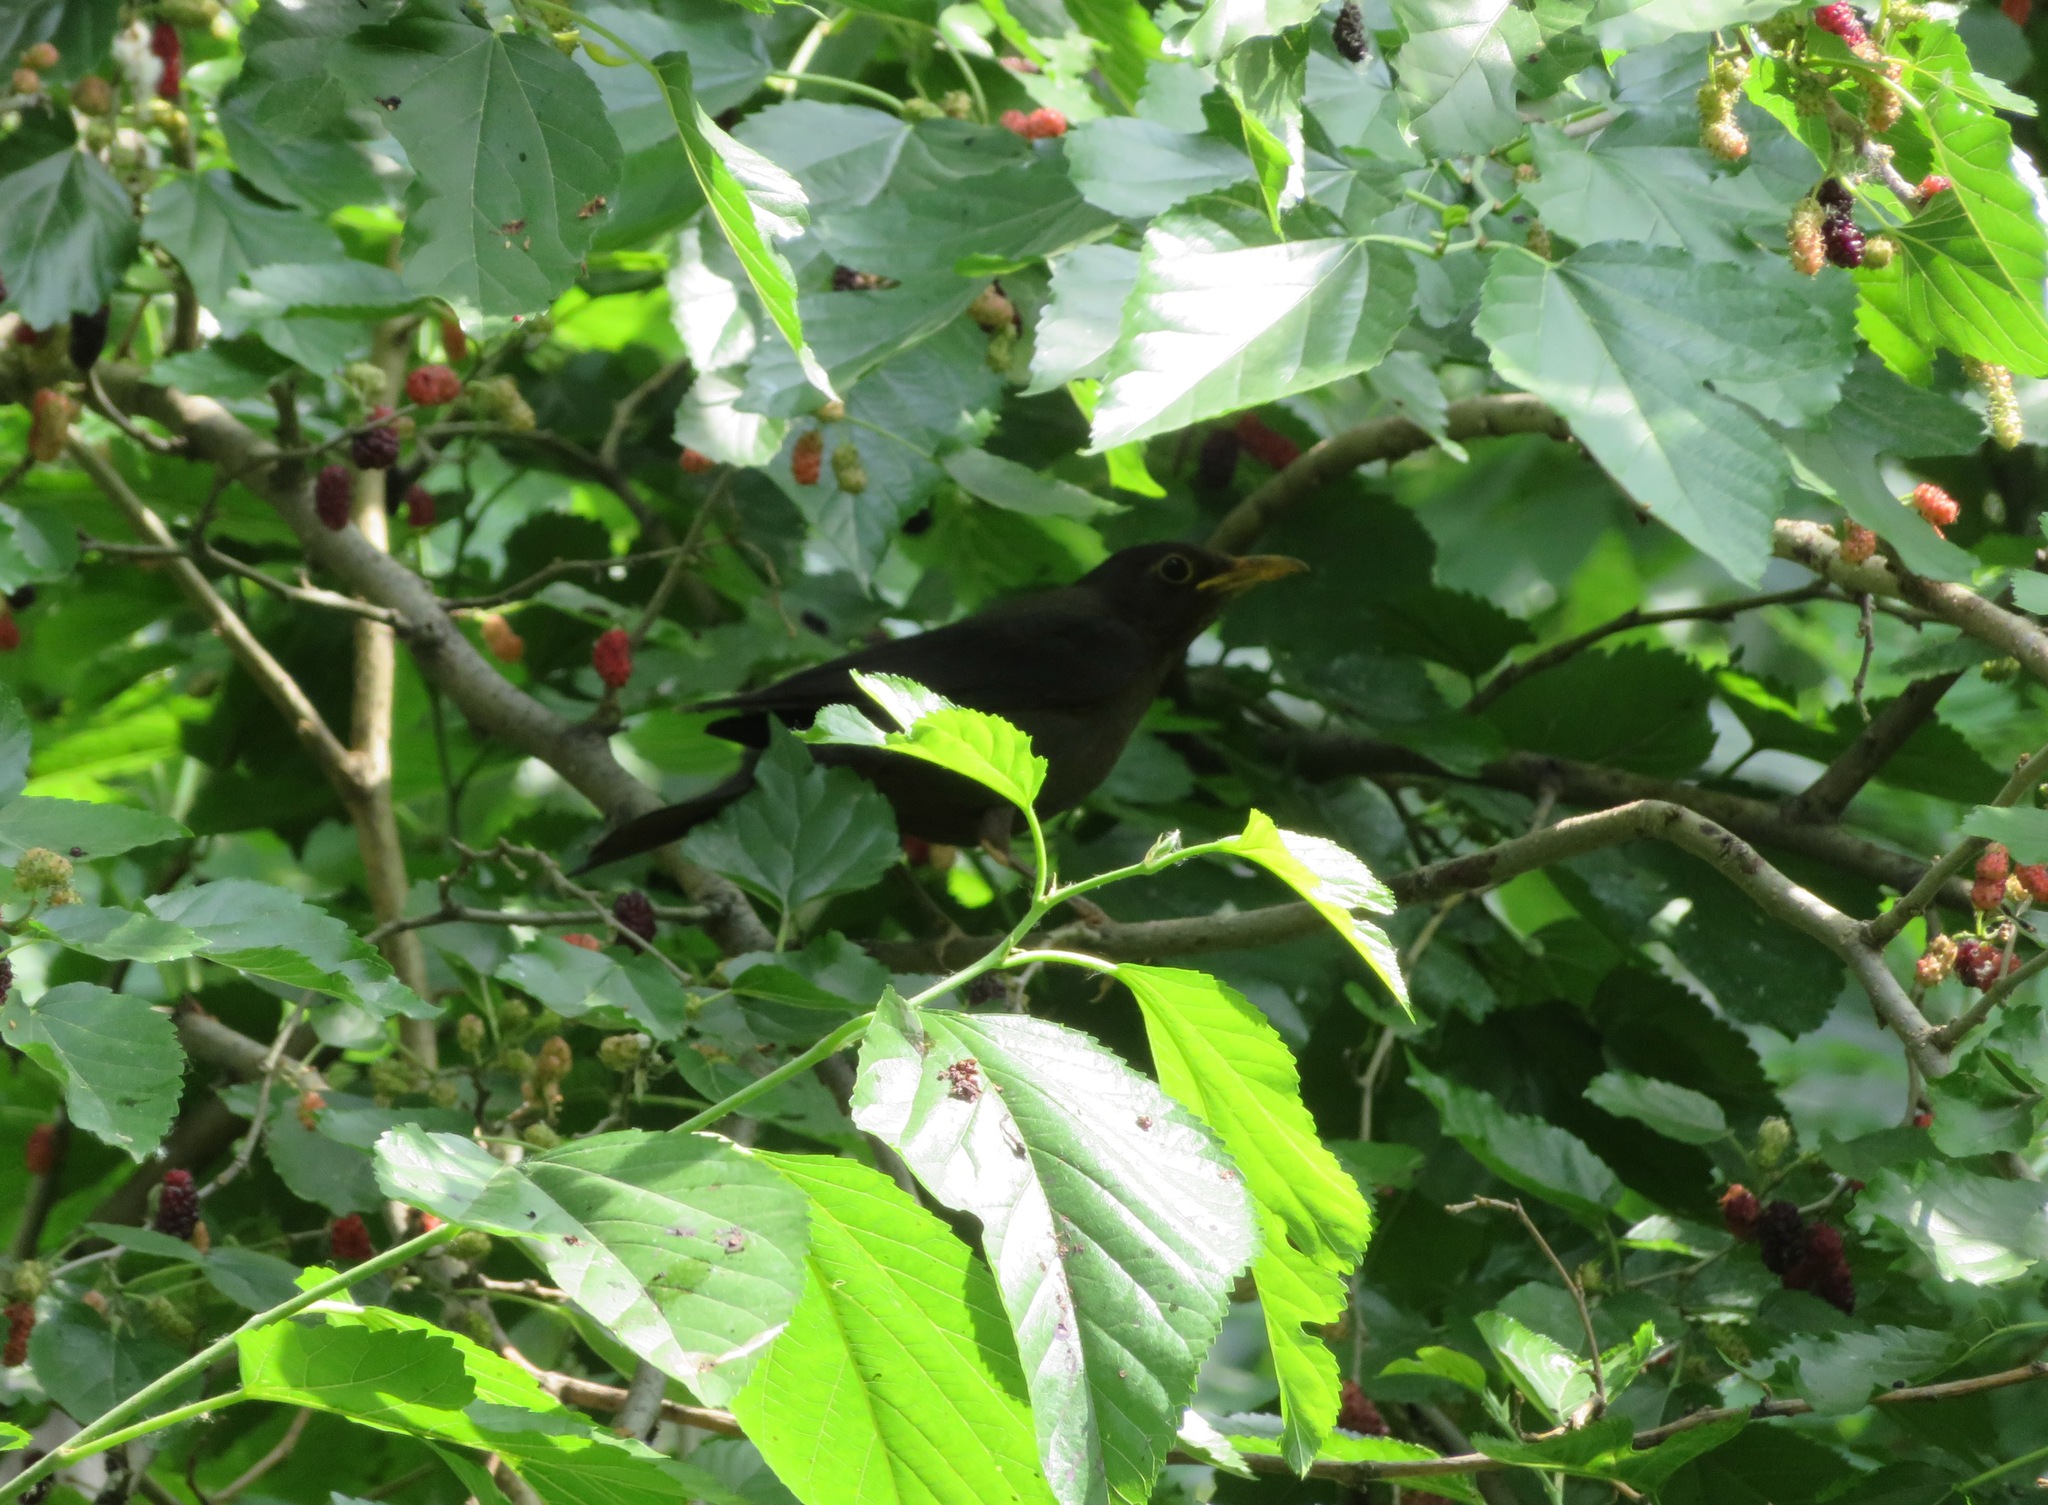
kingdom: Animalia
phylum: Chordata
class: Aves
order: Passeriformes
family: Turdidae
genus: Turdus
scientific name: Turdus mandarinus
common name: Chinese blackbird
